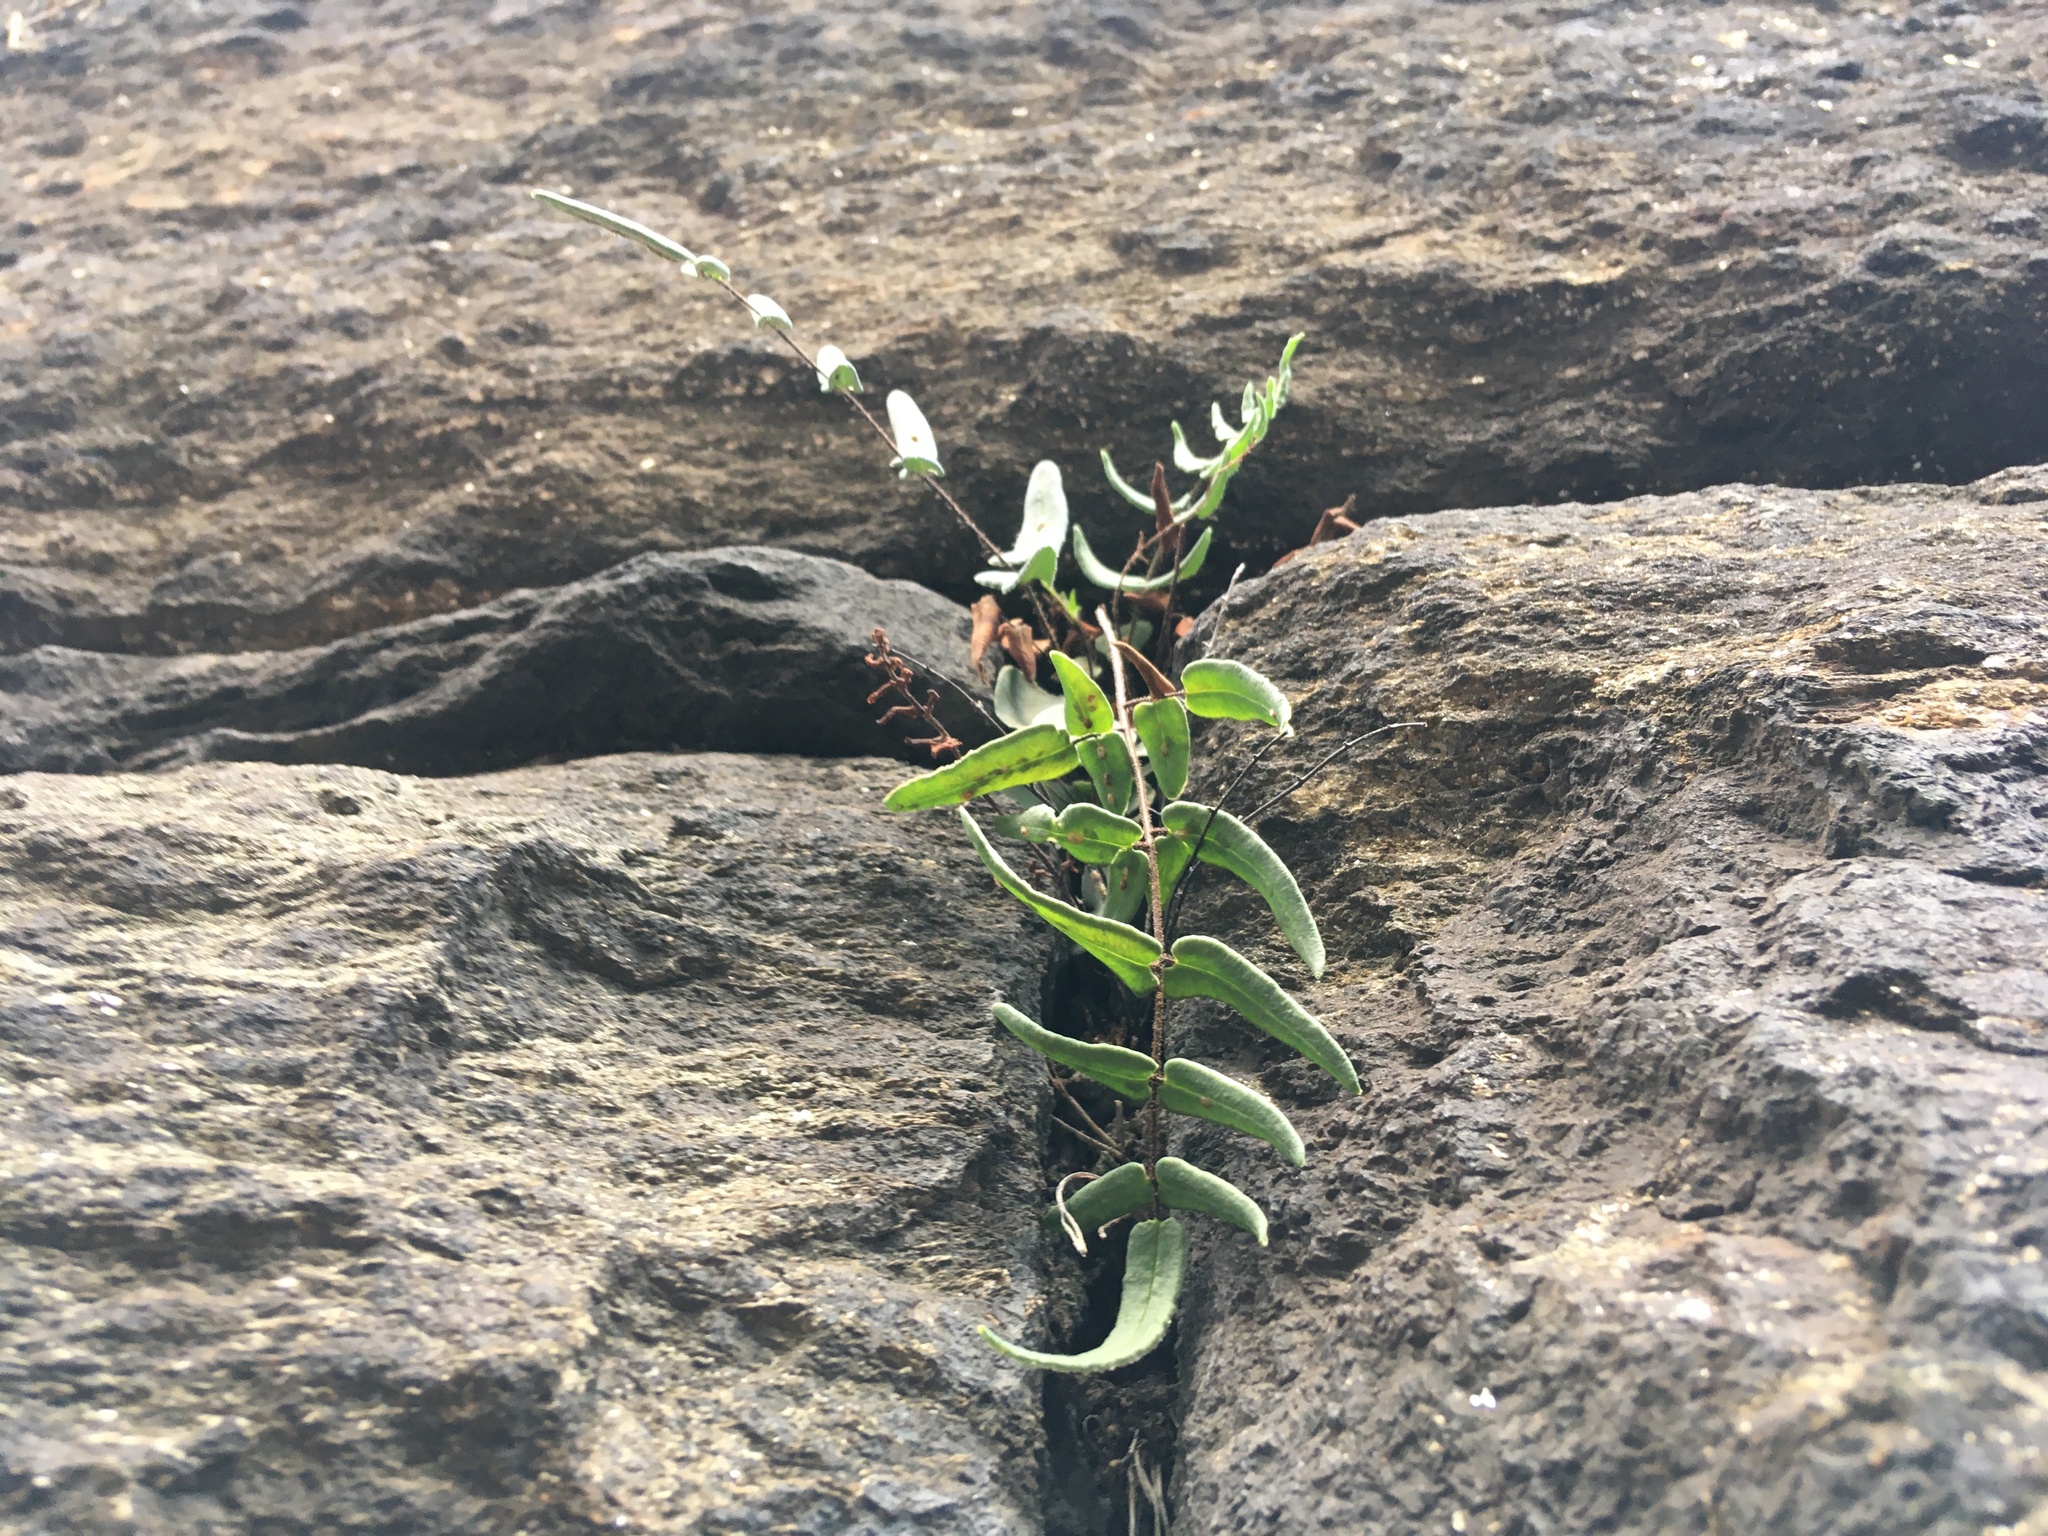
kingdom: Plantae
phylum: Tracheophyta
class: Polypodiopsida
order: Polypodiales
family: Pteridaceae
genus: Pellaea
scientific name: Pellaea atropurpurea
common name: Hairy cliffbrake
